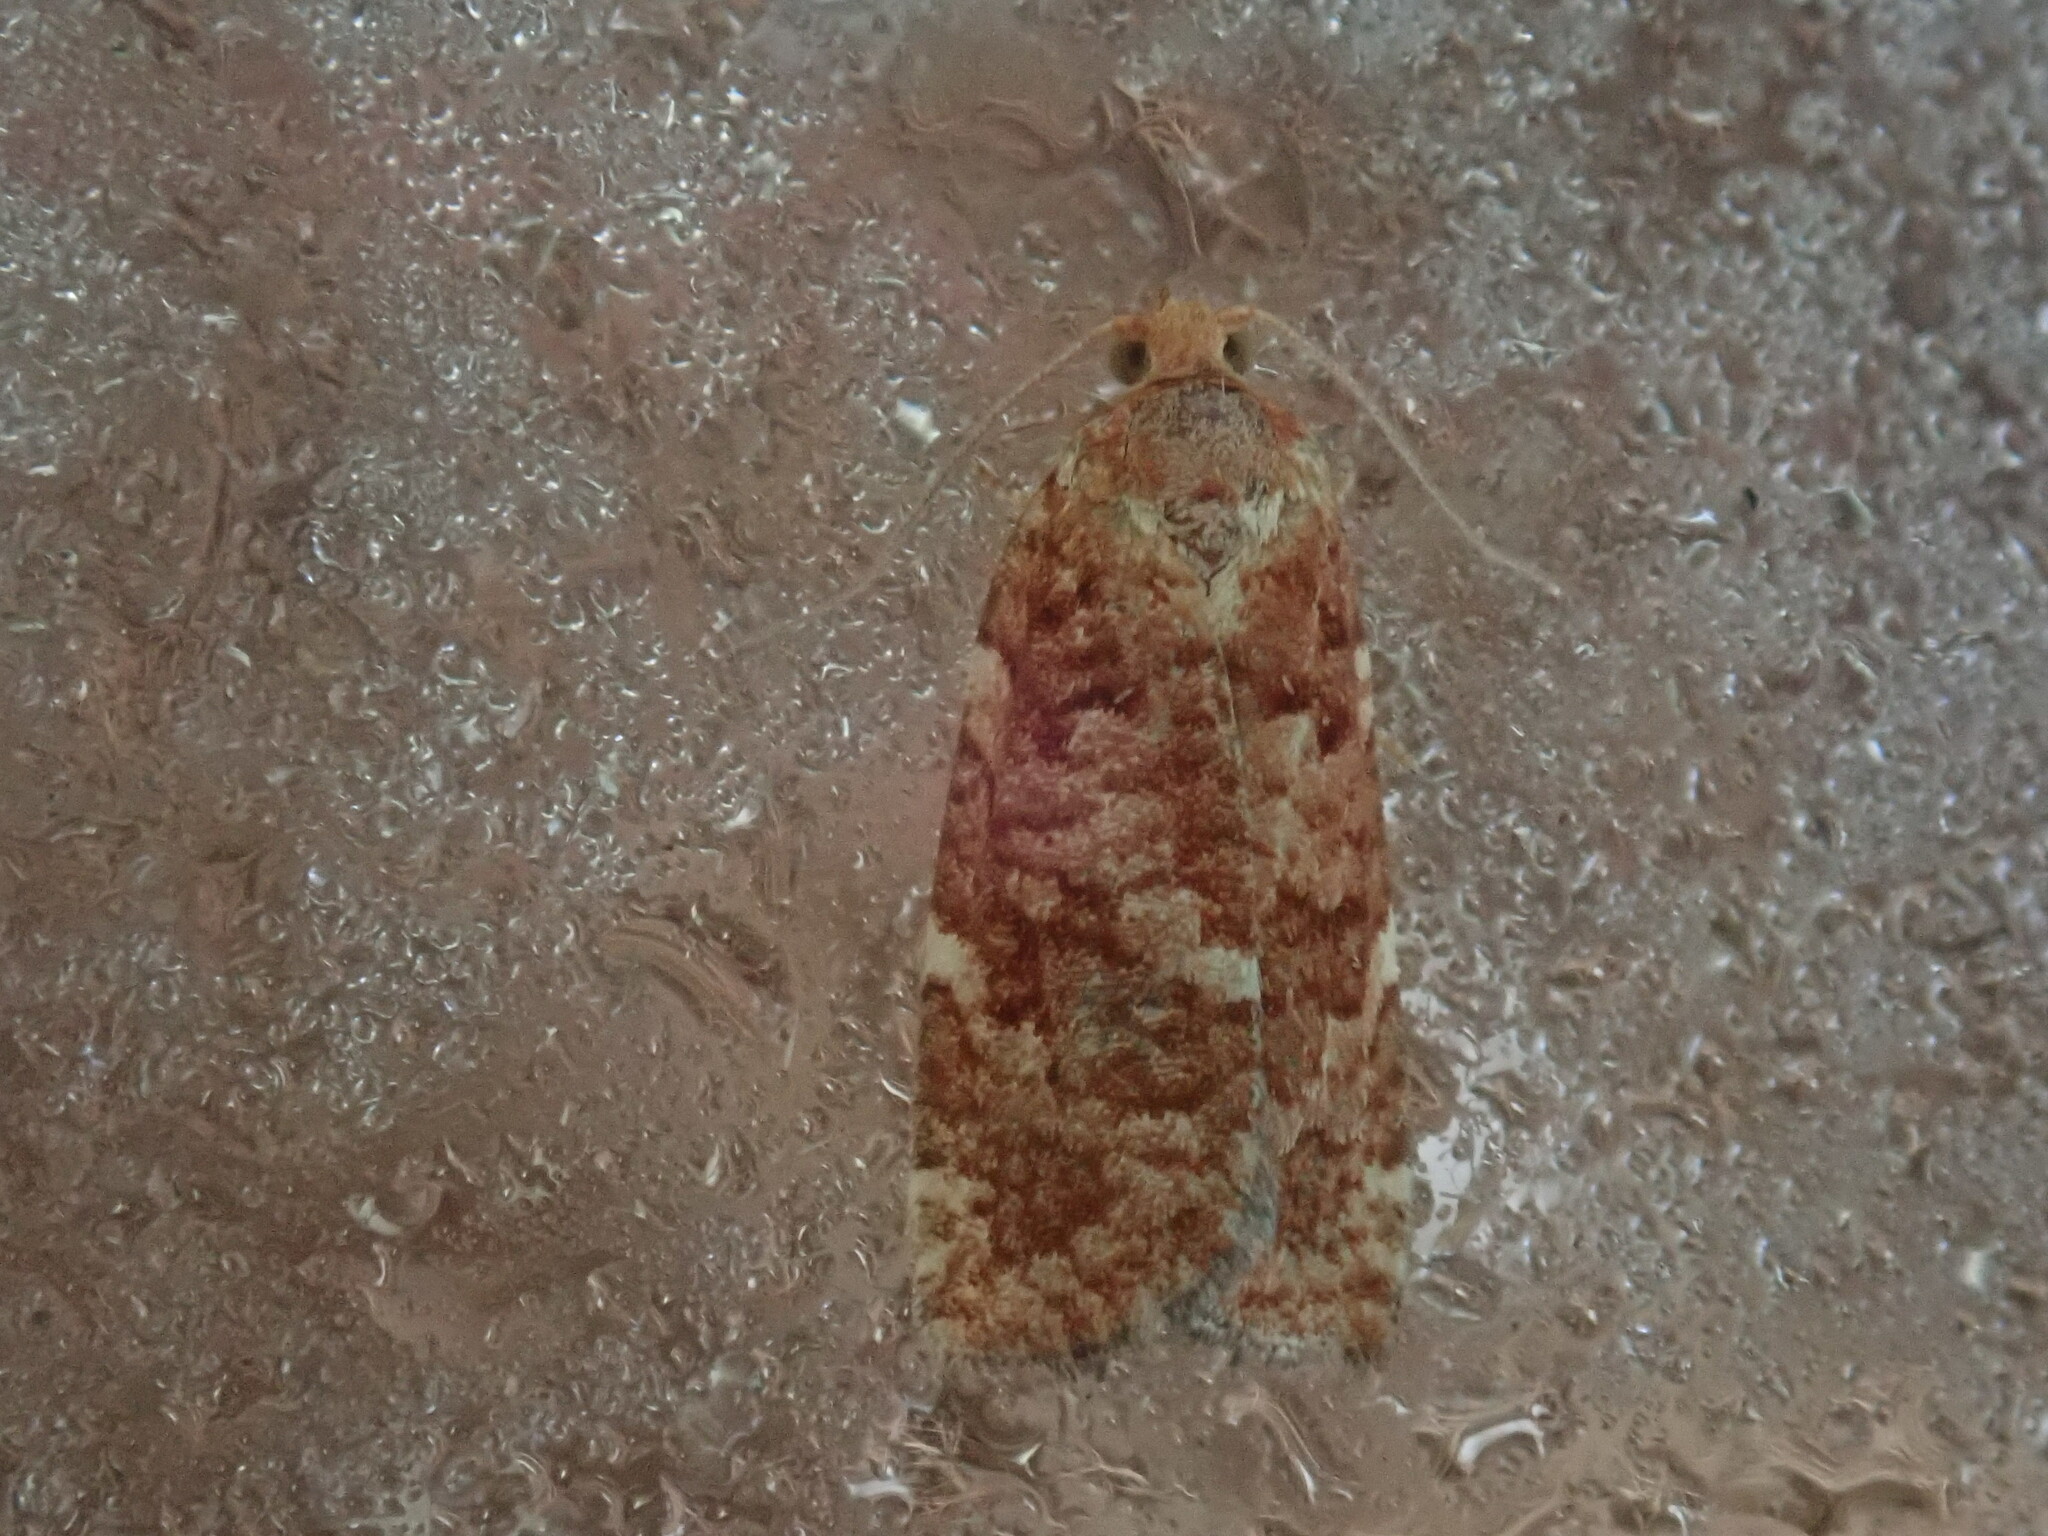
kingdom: Animalia
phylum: Arthropoda
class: Insecta
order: Lepidoptera
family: Tortricidae
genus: Choristoneura
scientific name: Choristoneura pinus
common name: Jack pine budworm
